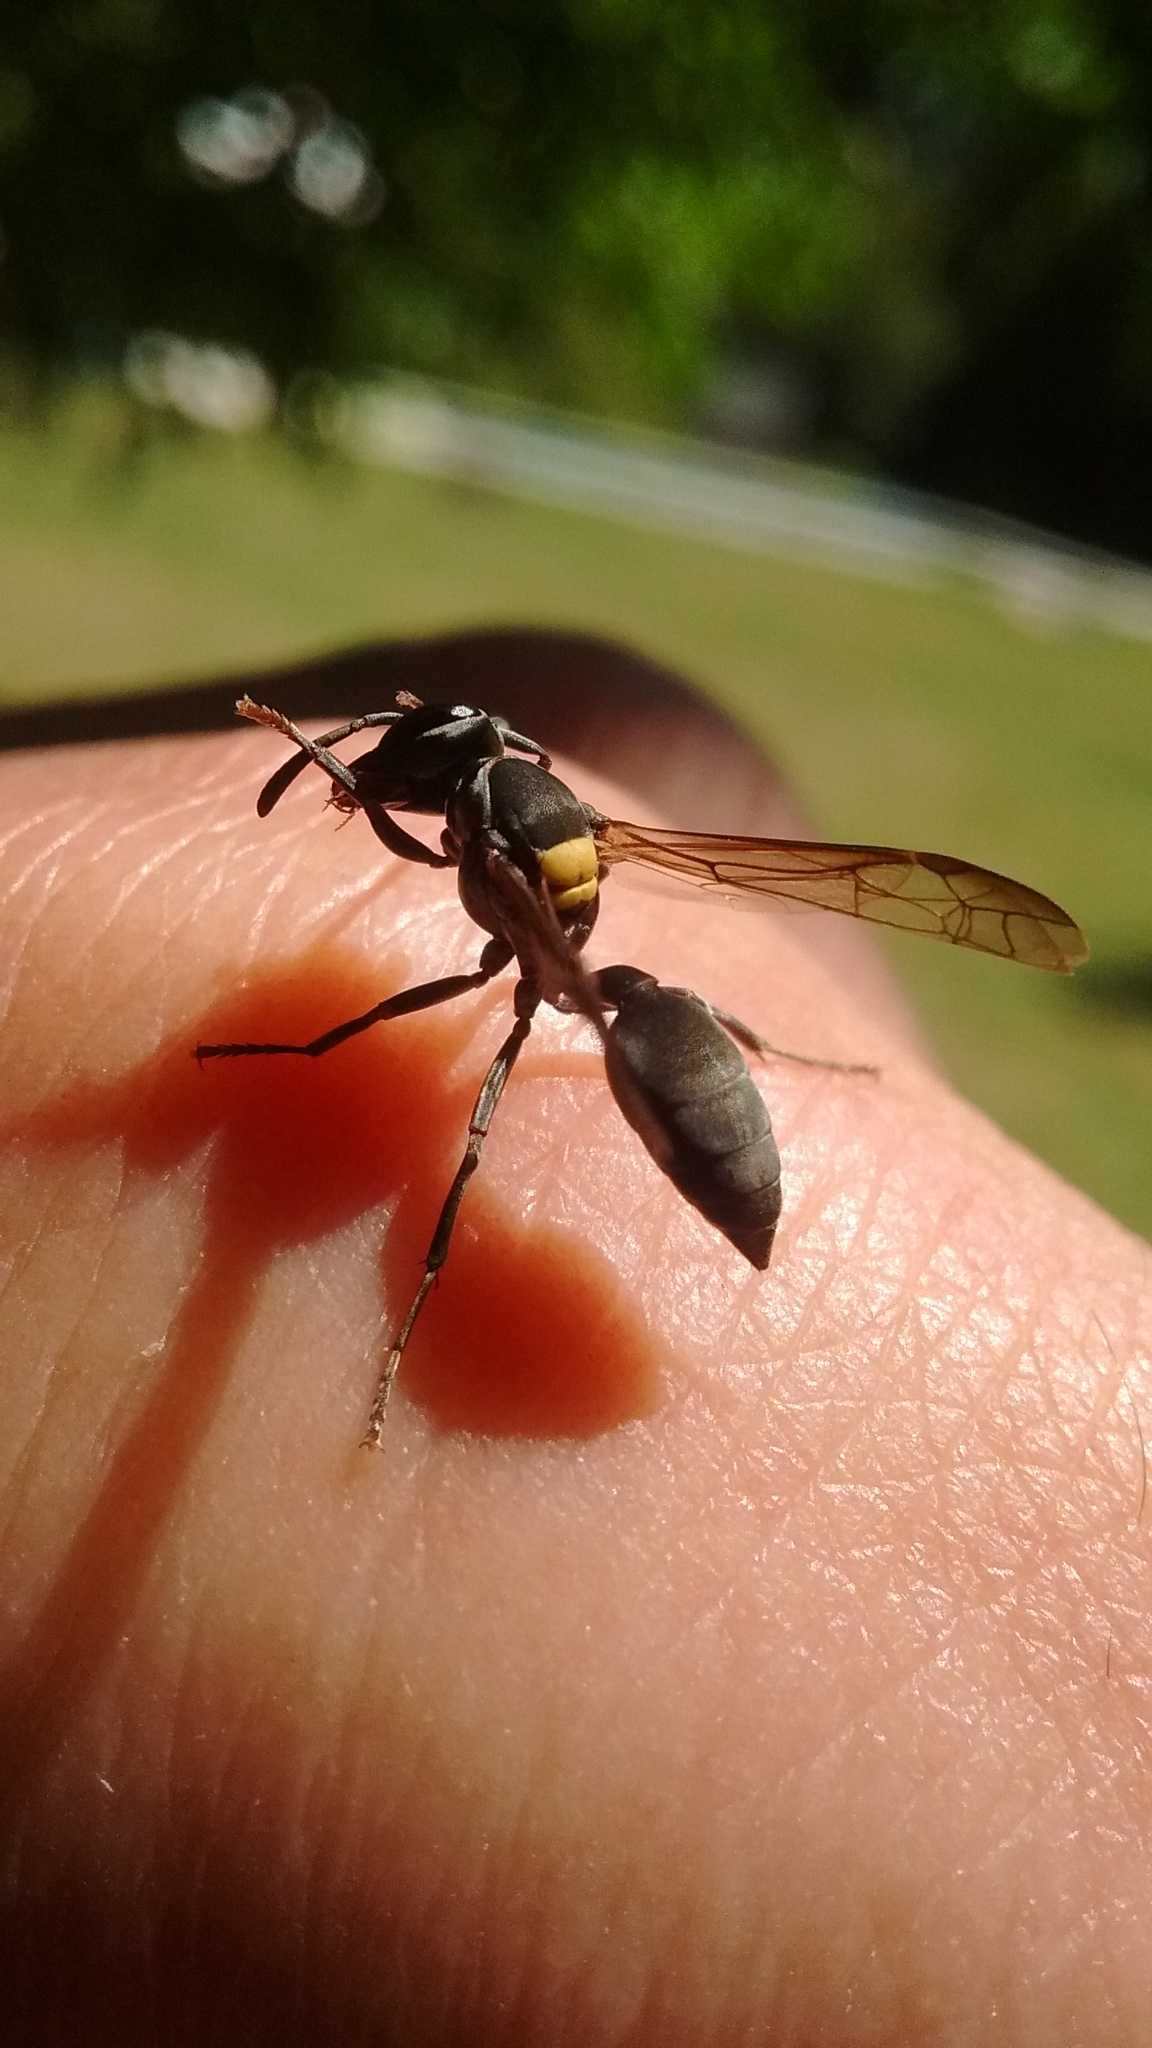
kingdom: Animalia
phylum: Arthropoda
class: Insecta
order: Hymenoptera
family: Eumenidae
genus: Polybia
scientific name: Polybia scutellaris
